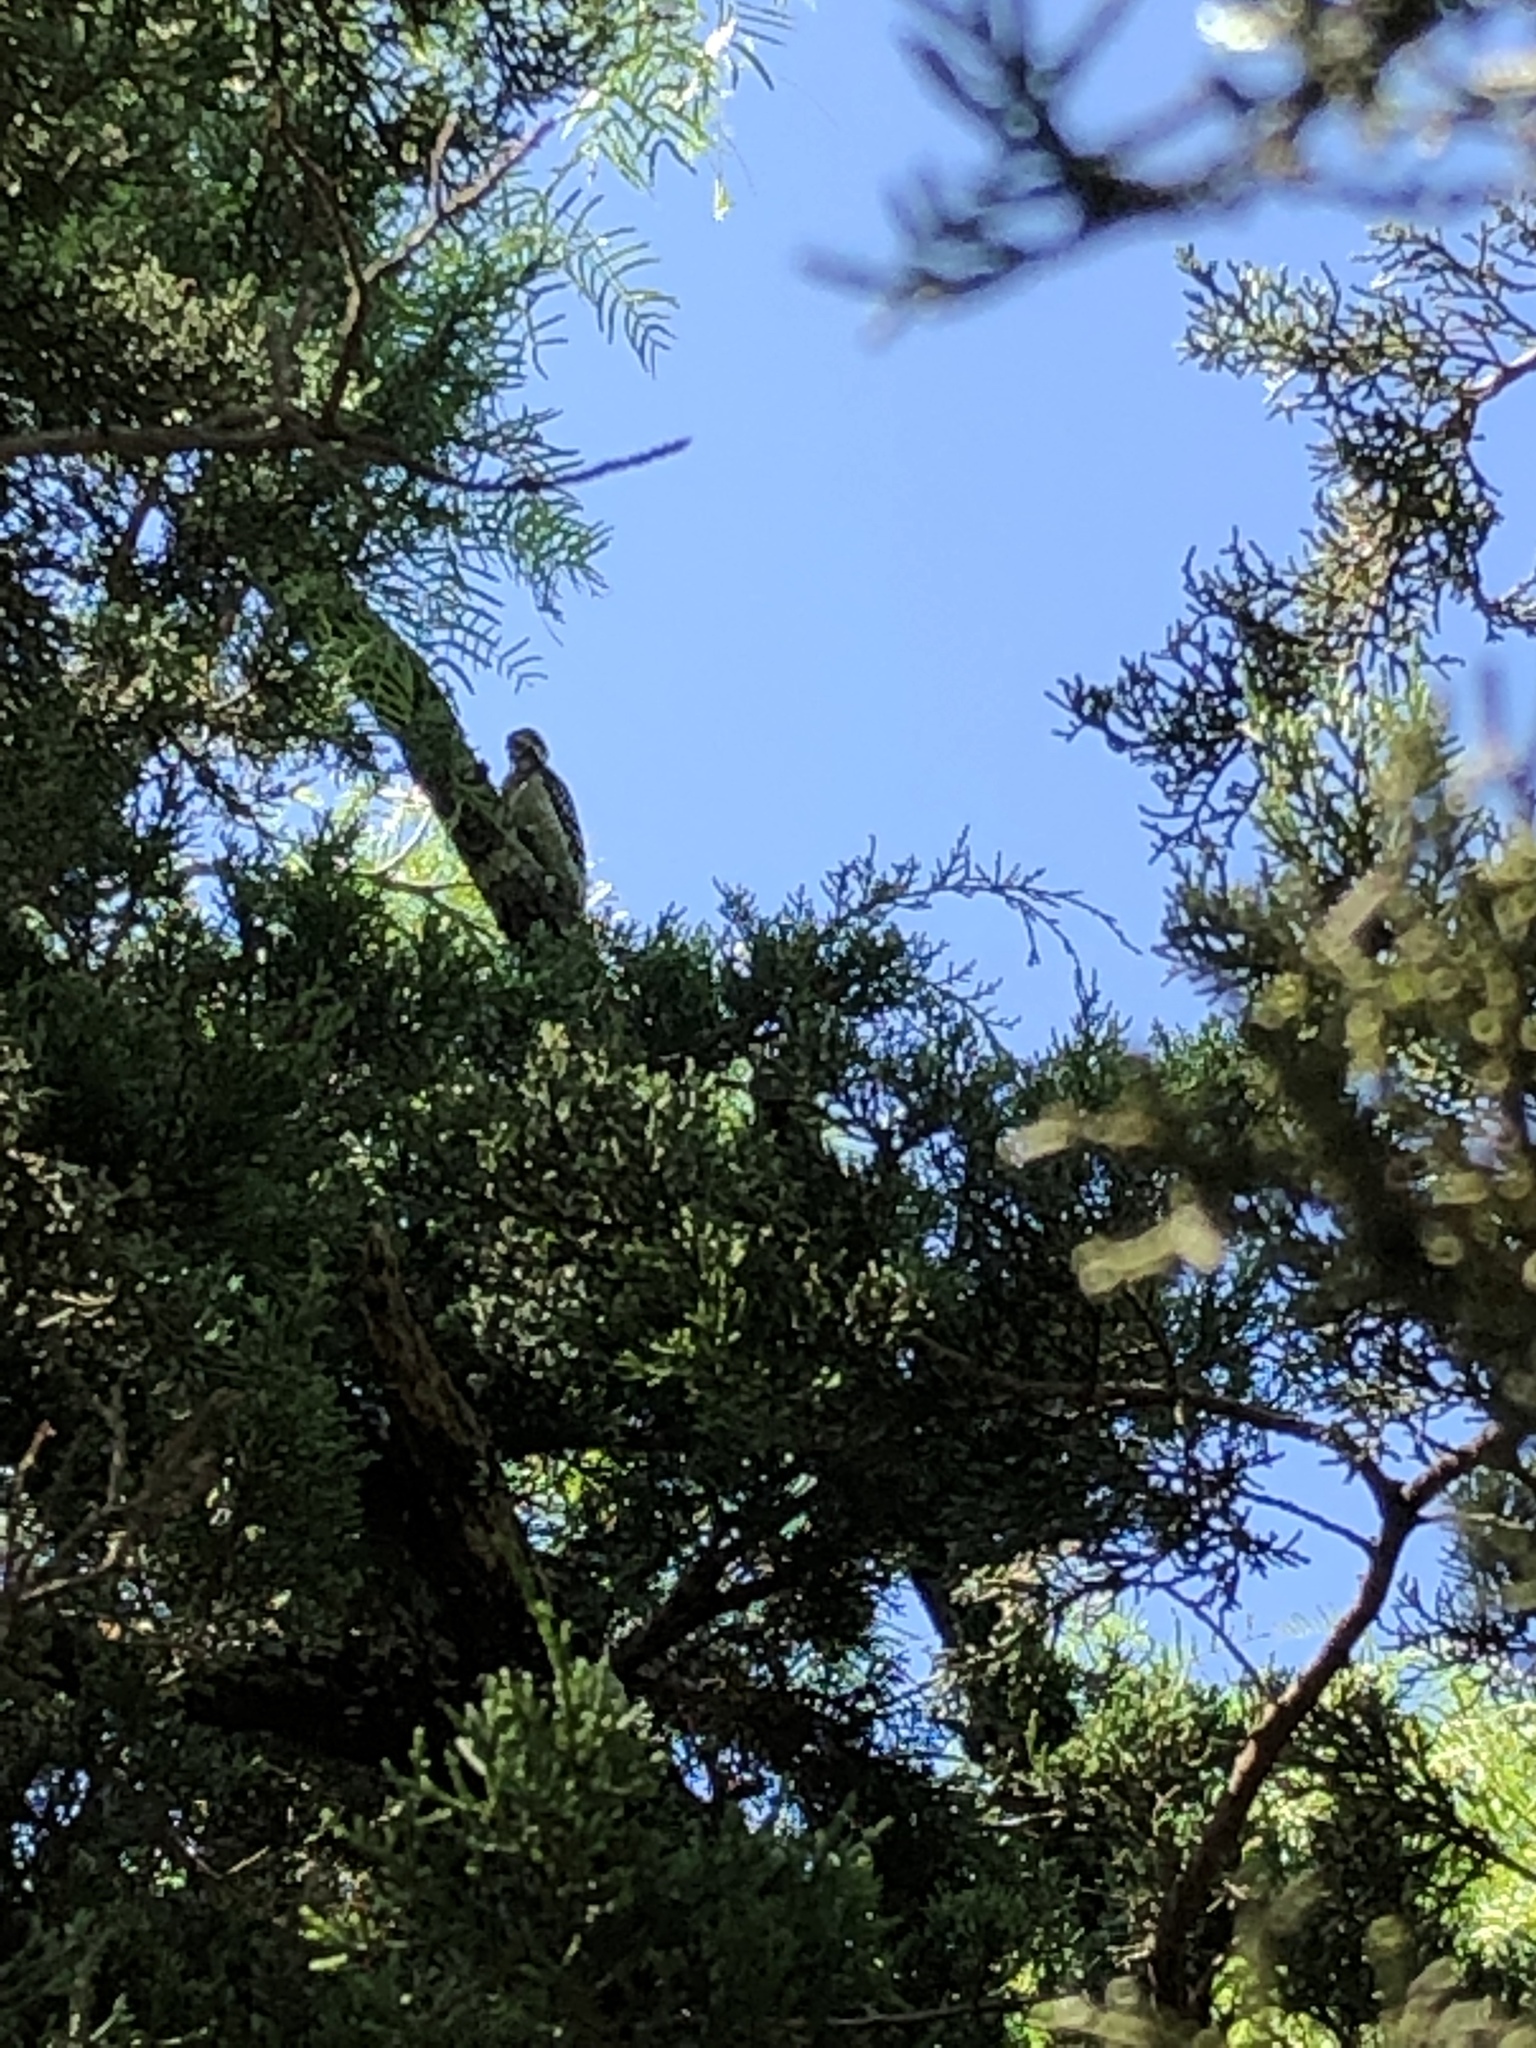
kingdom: Animalia
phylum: Chordata
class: Aves
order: Piciformes
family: Picidae
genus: Dryobates
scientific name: Dryobates scalaris
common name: Ladder-backed woodpecker
